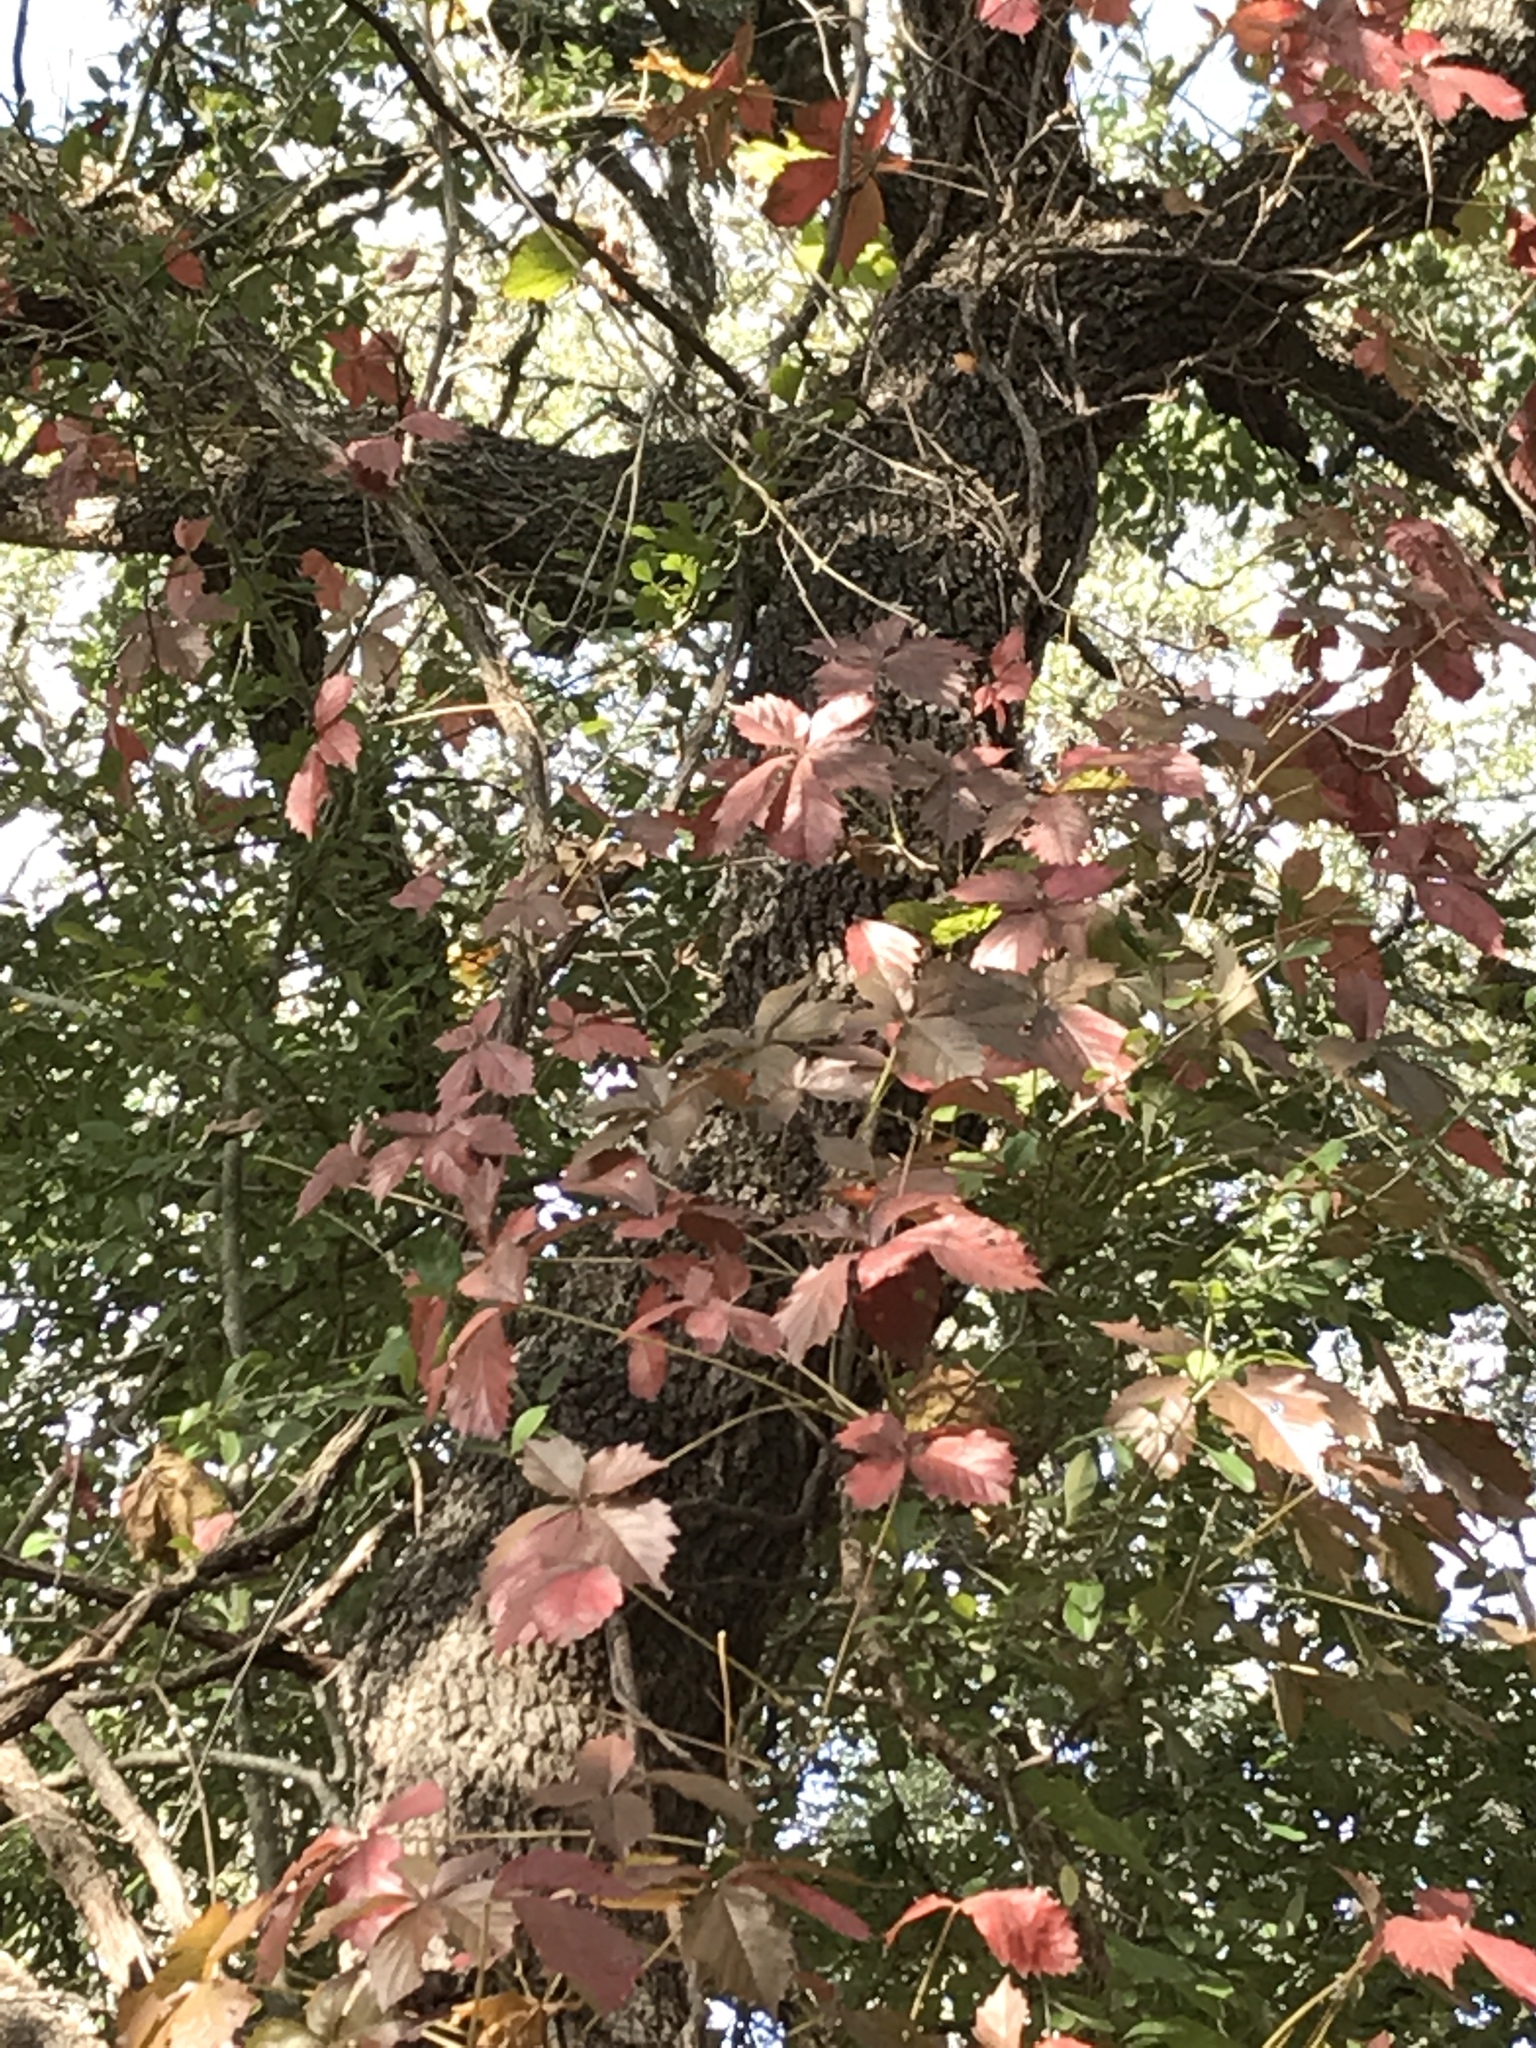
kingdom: Plantae
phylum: Tracheophyta
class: Magnoliopsida
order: Vitales
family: Vitaceae
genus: Parthenocissus
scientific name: Parthenocissus quinquefolia
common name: Virginia-creeper
